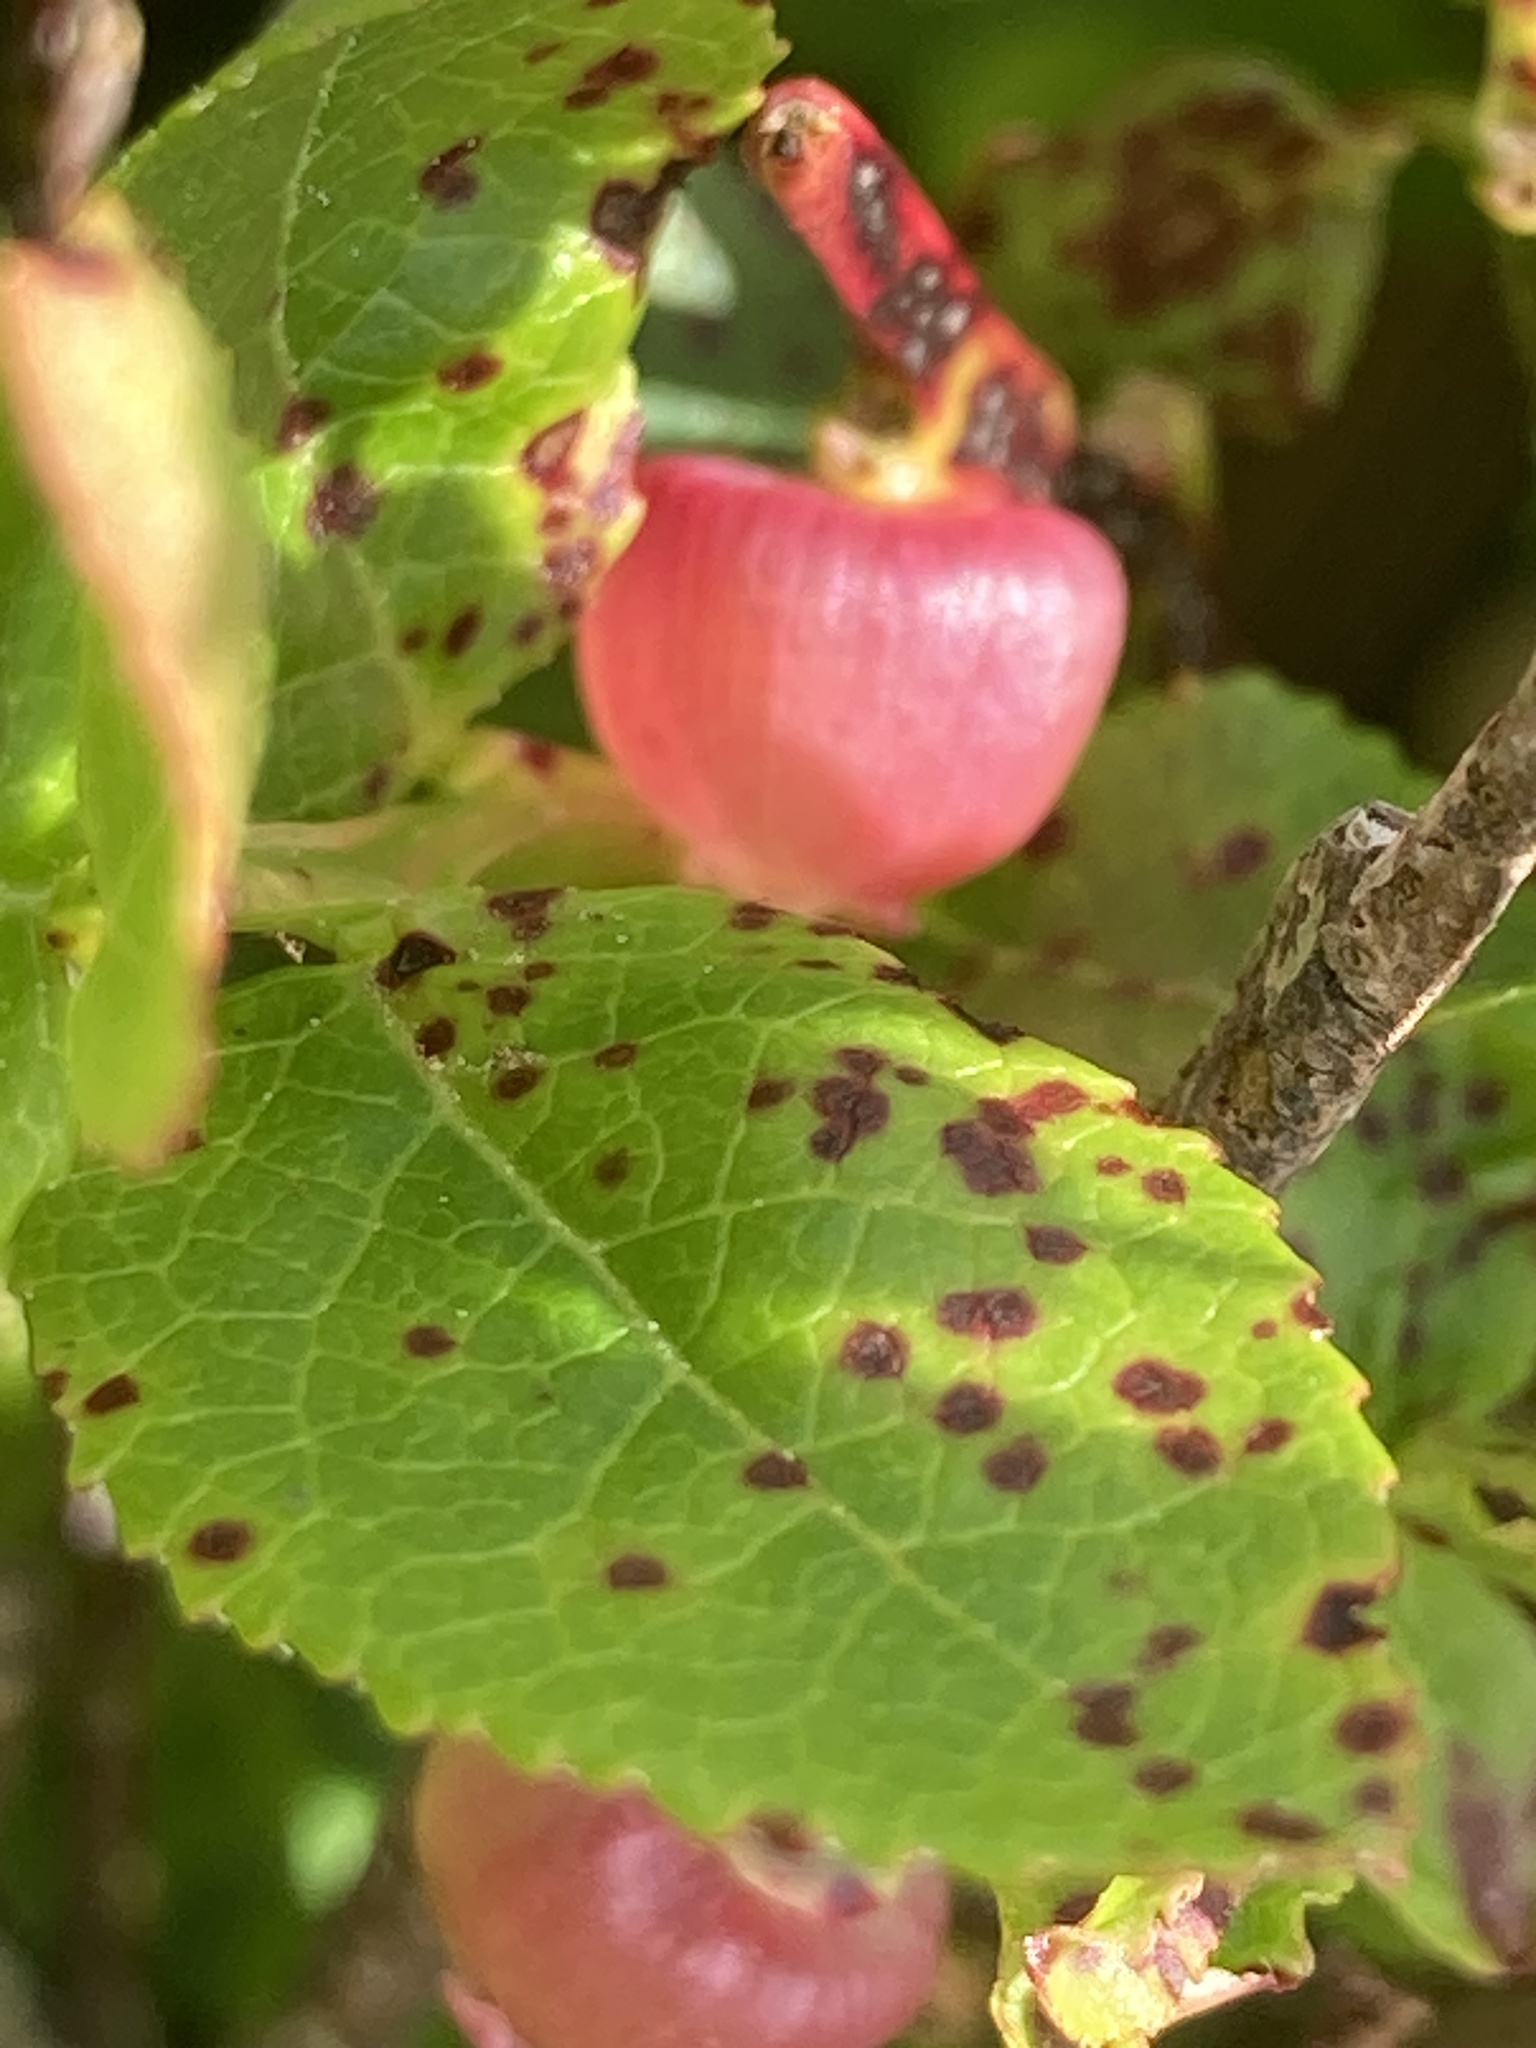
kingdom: Plantae
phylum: Tracheophyta
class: Magnoliopsida
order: Ericales
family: Ericaceae
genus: Vaccinium
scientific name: Vaccinium myrtillus
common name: Bilberry
